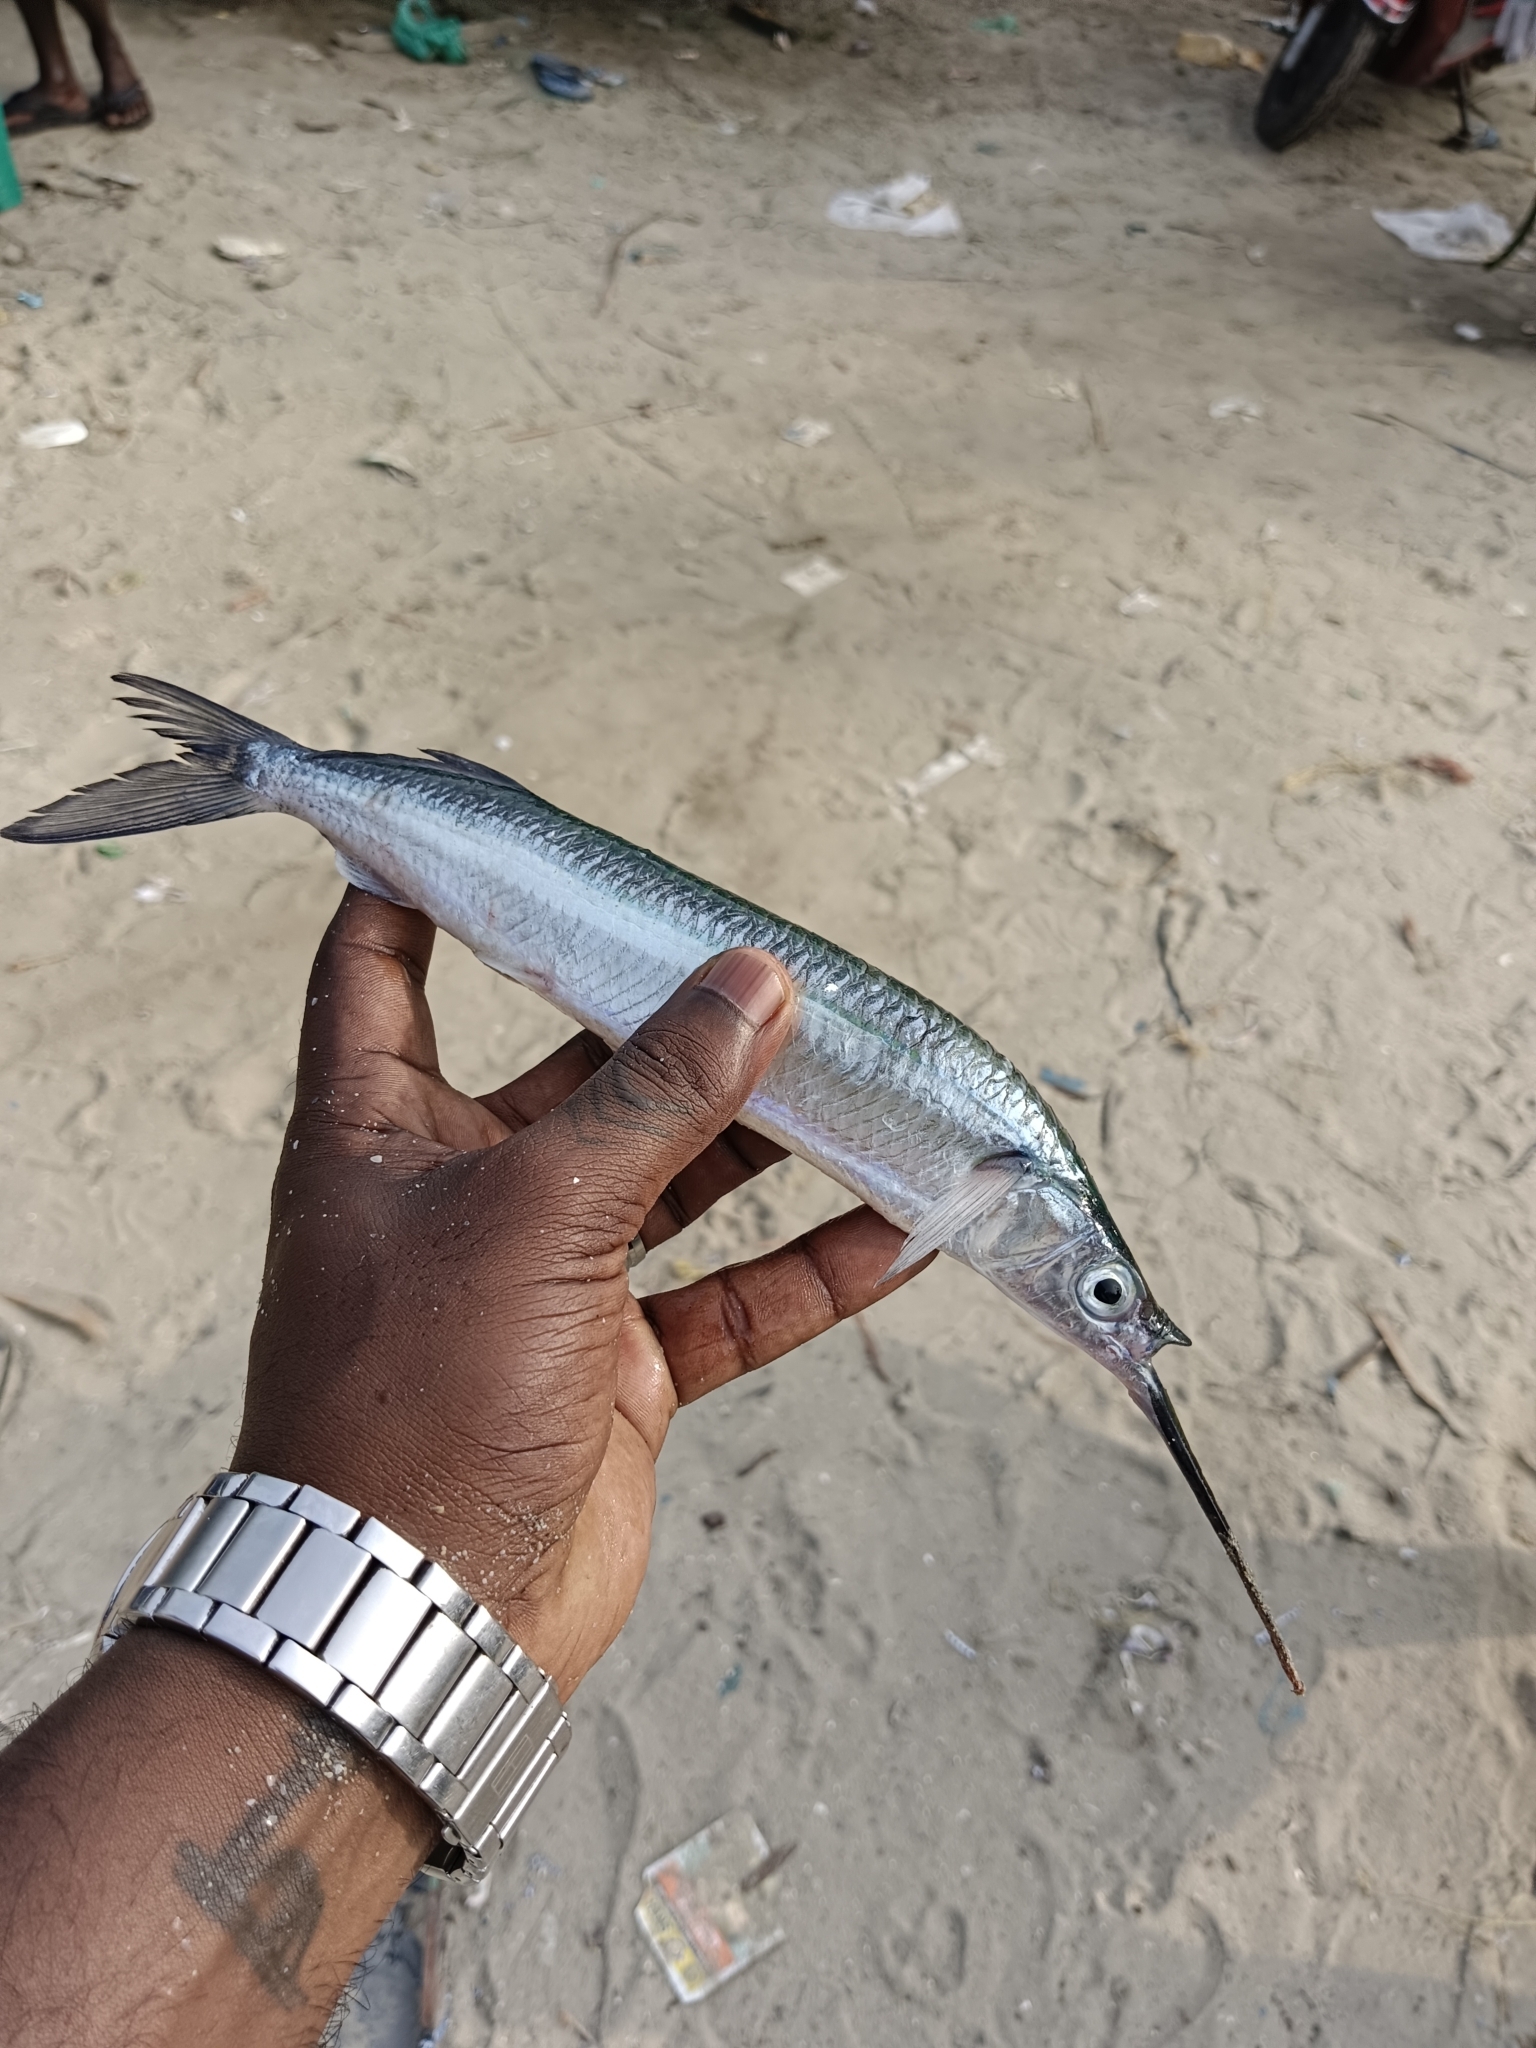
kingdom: Animalia
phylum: Chordata
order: Beloniformes
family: Hemiramphidae
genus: Hemiramphus
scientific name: Hemiramphus lutkei
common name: Lutke's halfbeak
